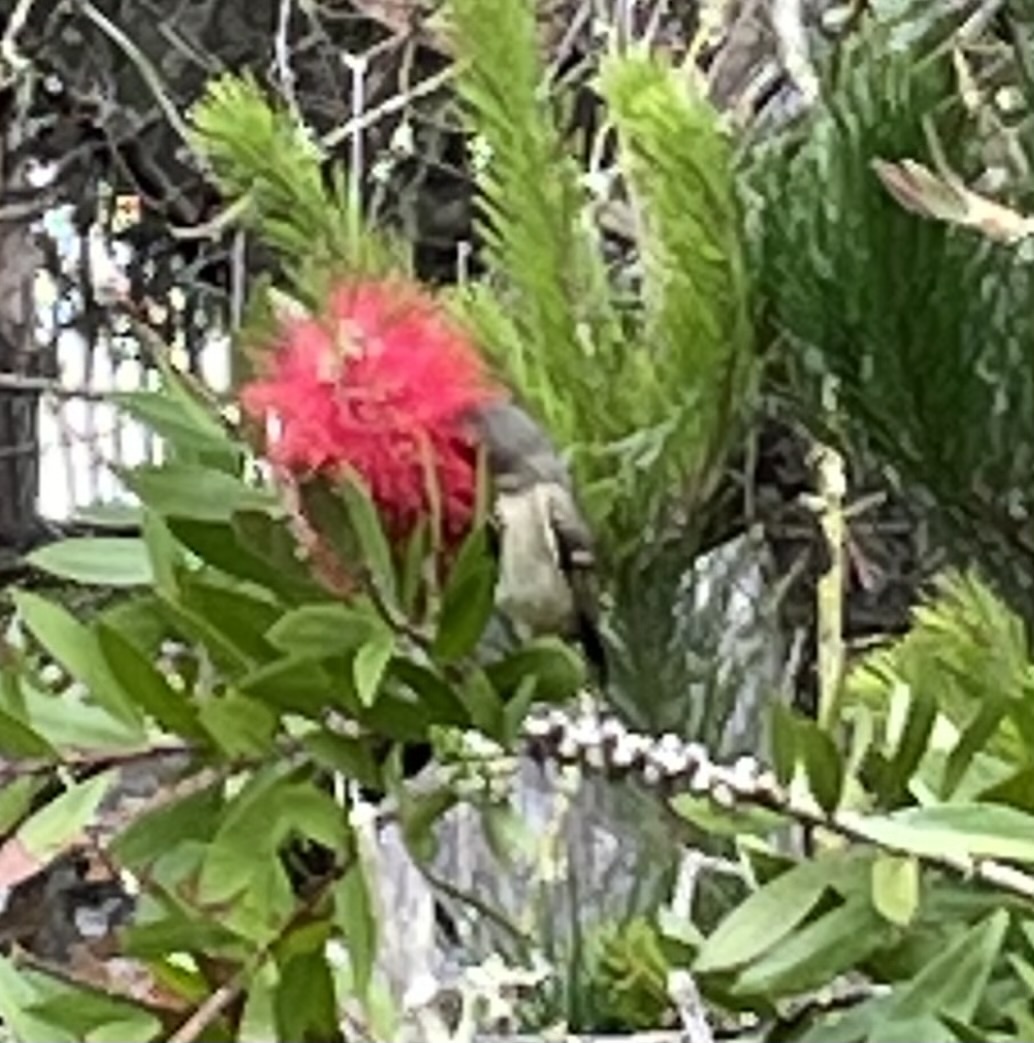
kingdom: Animalia
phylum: Chordata
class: Aves
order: Passeriformes
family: Regulidae
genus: Regulus
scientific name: Regulus calendula
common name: Ruby-crowned kinglet
